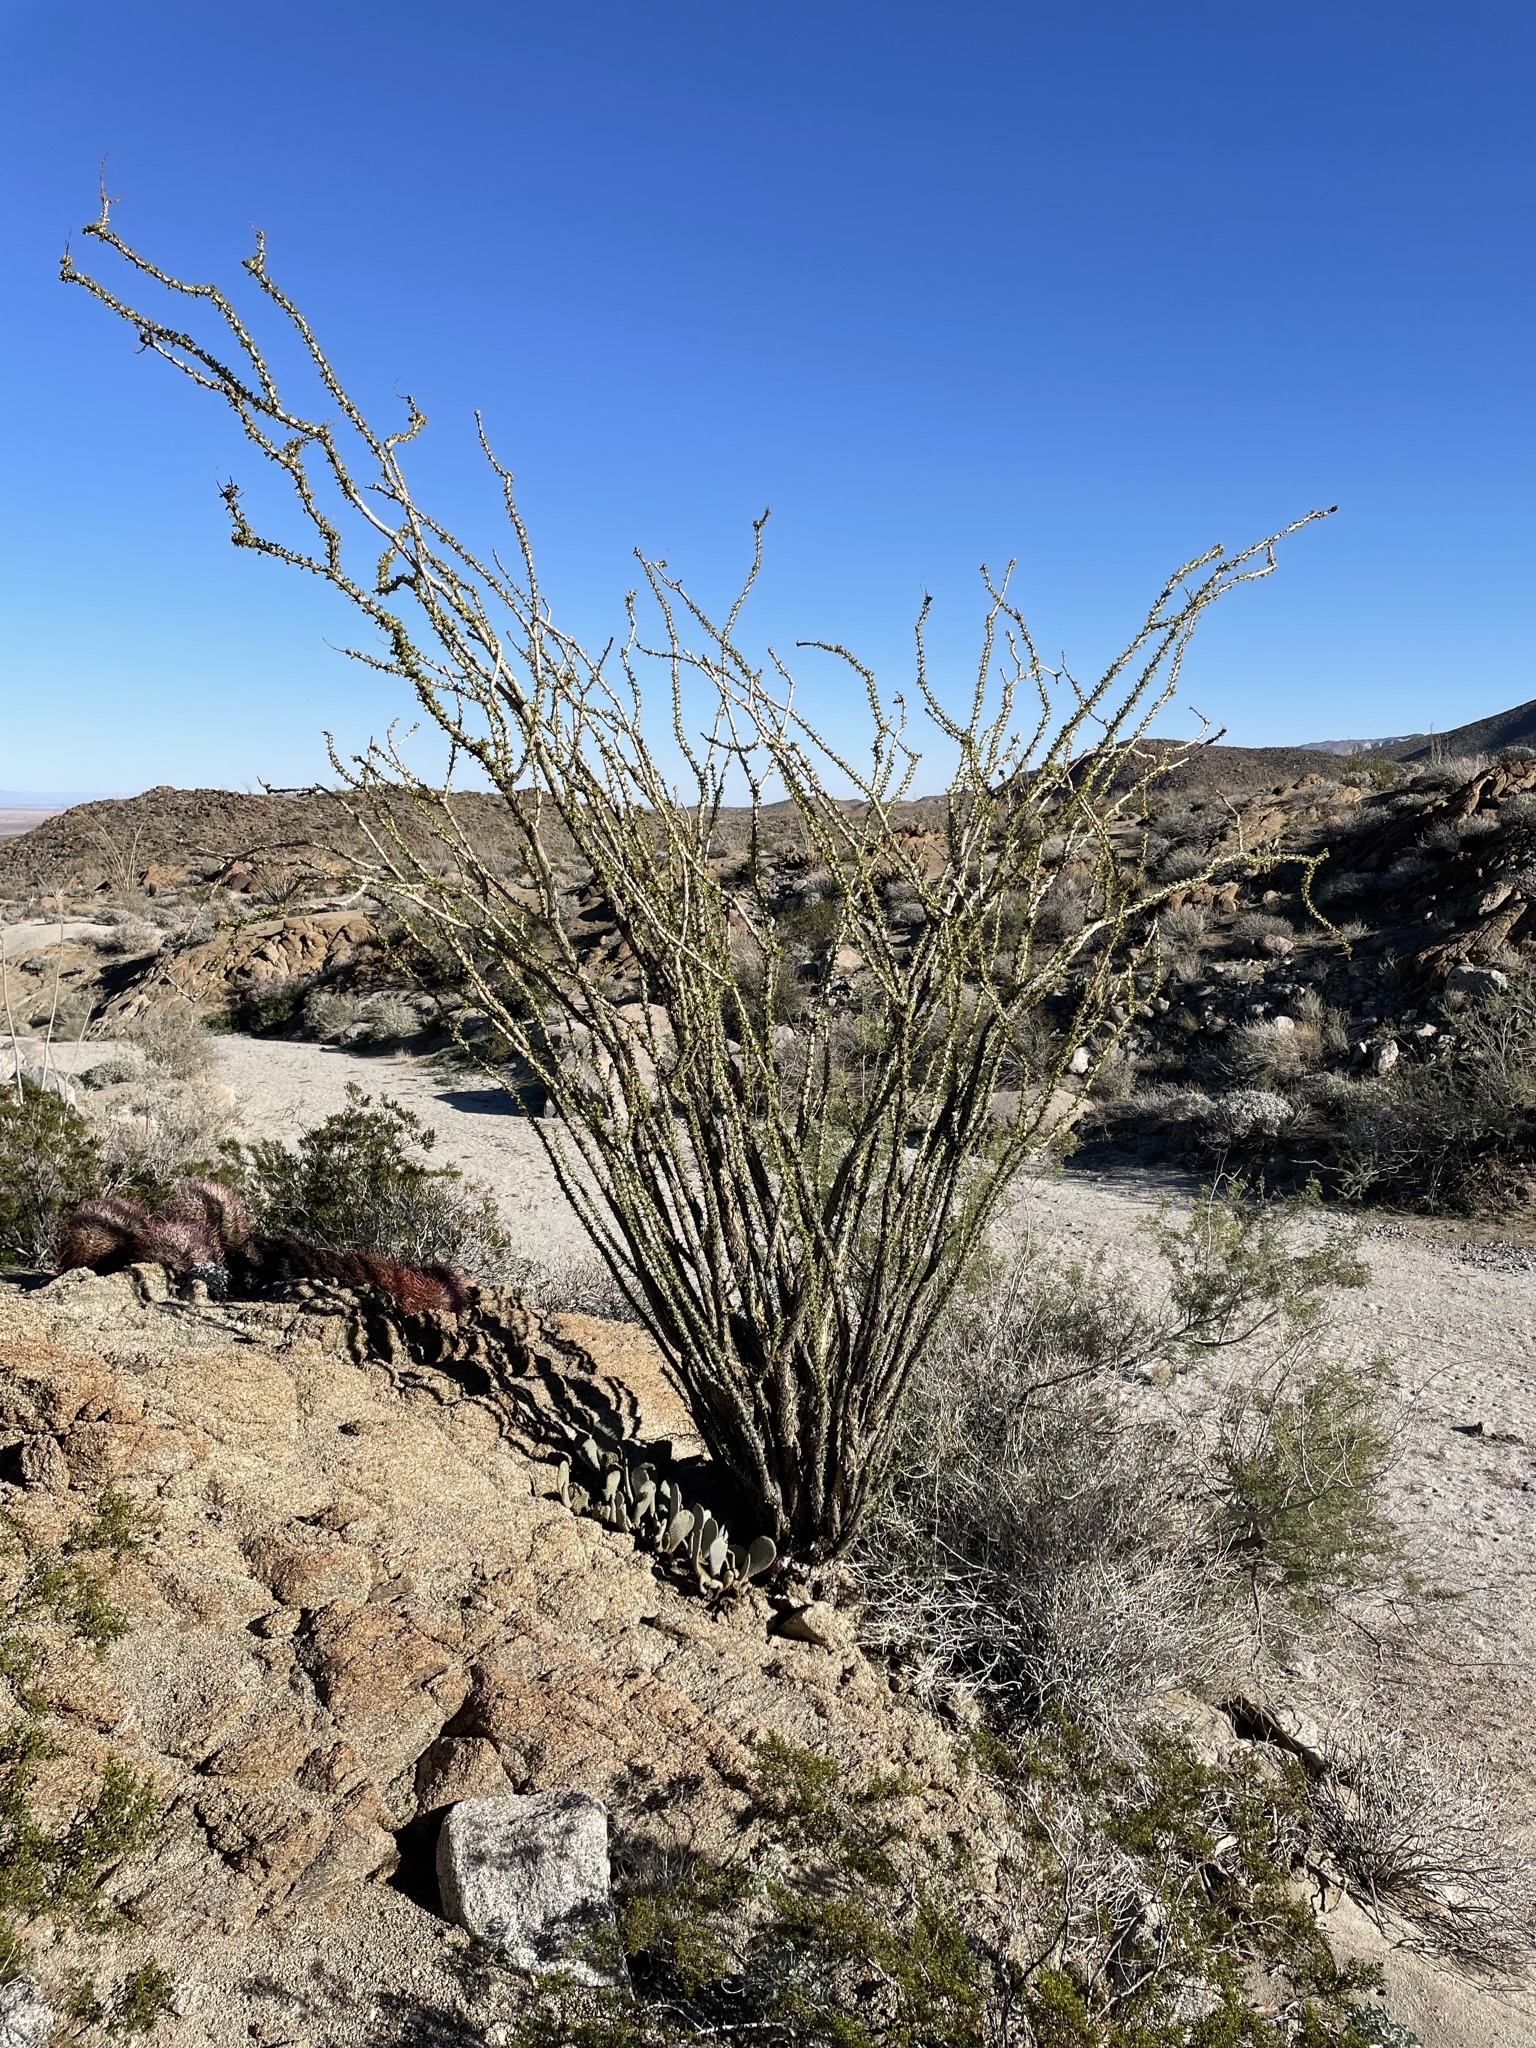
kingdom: Plantae
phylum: Tracheophyta
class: Magnoliopsida
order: Ericales
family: Fouquieriaceae
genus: Fouquieria
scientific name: Fouquieria splendens
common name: Vine-cactus
